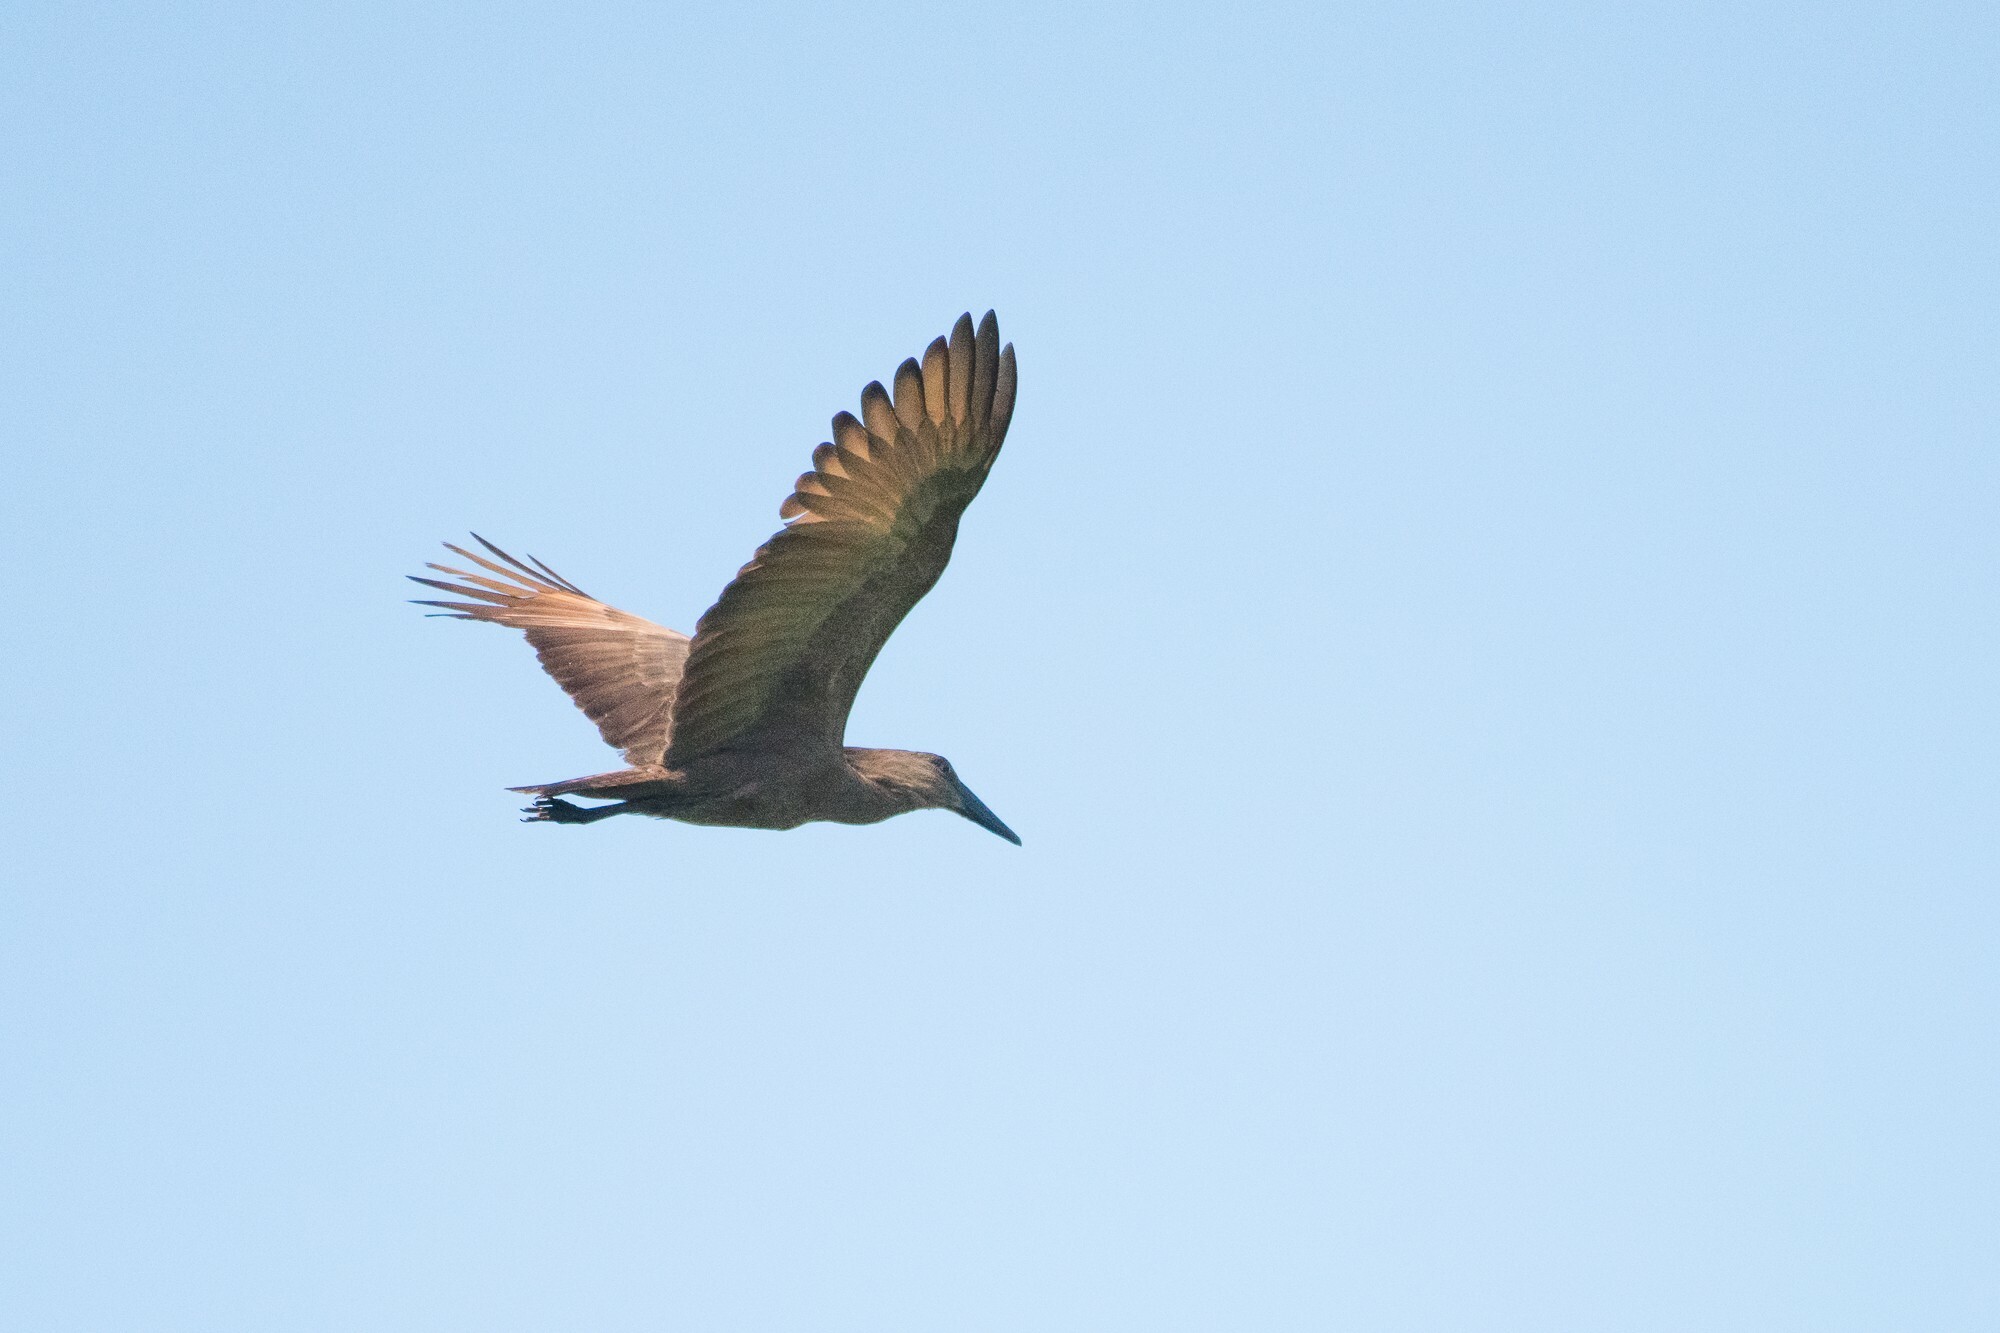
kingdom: Animalia
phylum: Chordata
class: Aves
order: Pelecaniformes
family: Scopidae
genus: Scopus
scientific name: Scopus umbretta
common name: Hamerkop
